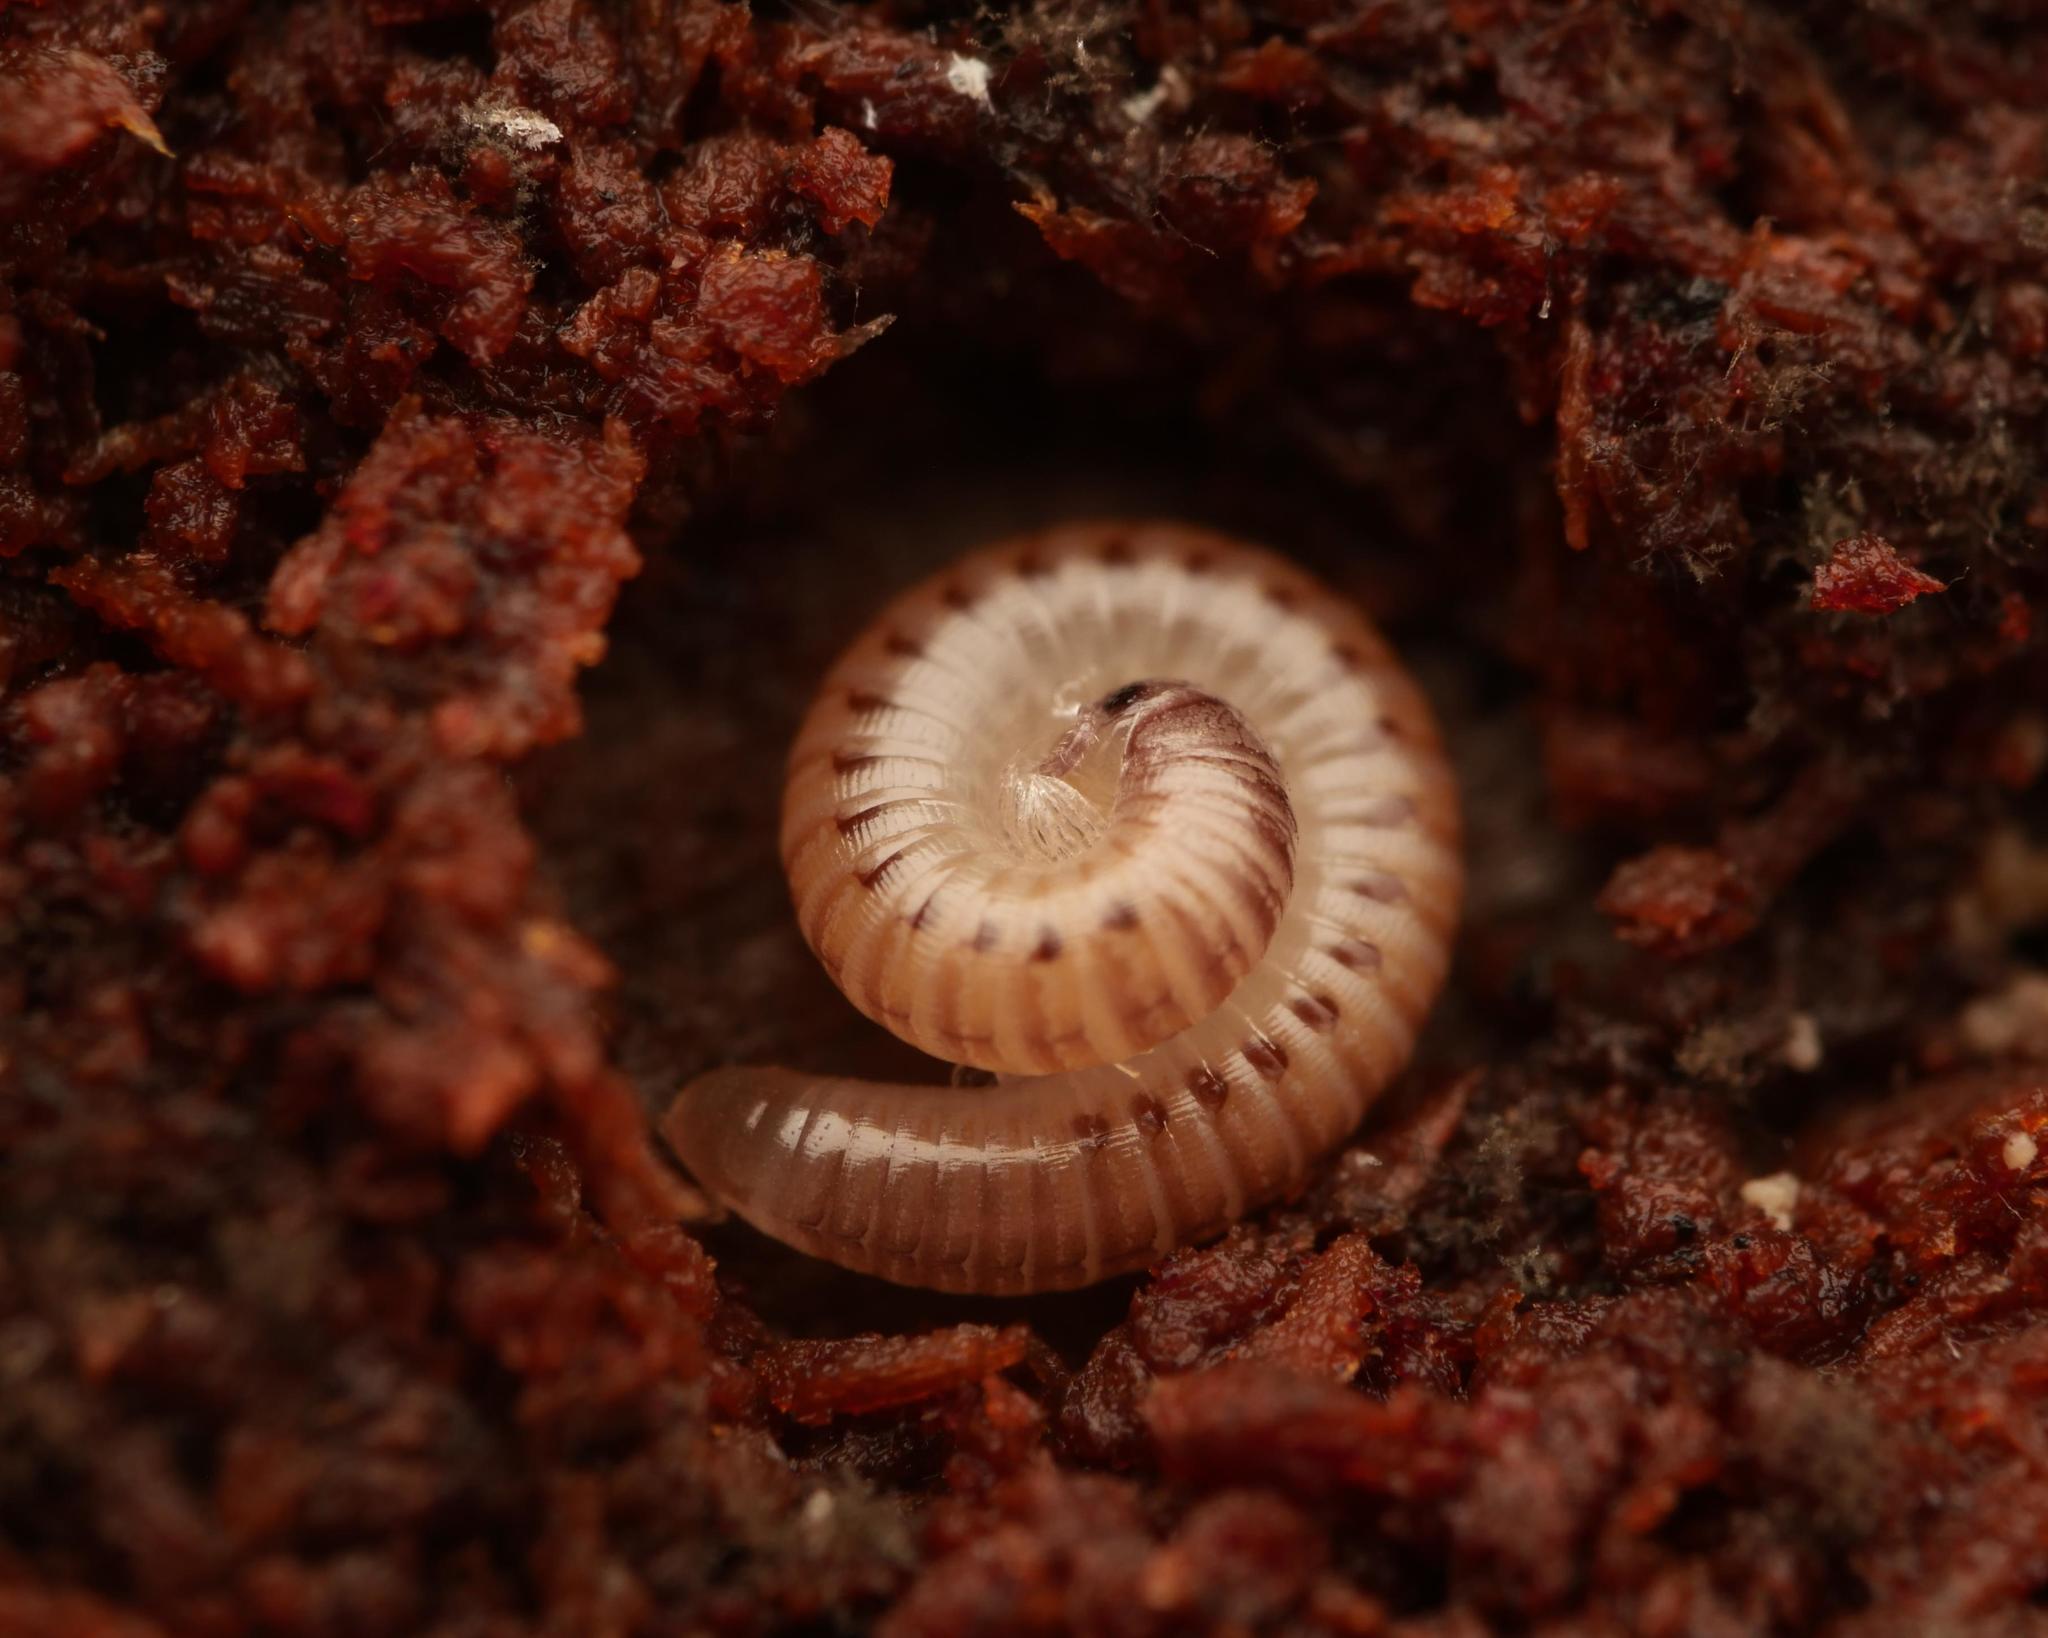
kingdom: Animalia
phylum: Arthropoda
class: Diplopoda
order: Julida
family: Julidae
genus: Cylindroiulus
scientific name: Cylindroiulus punctatus
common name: Blunt-tailed millipede
